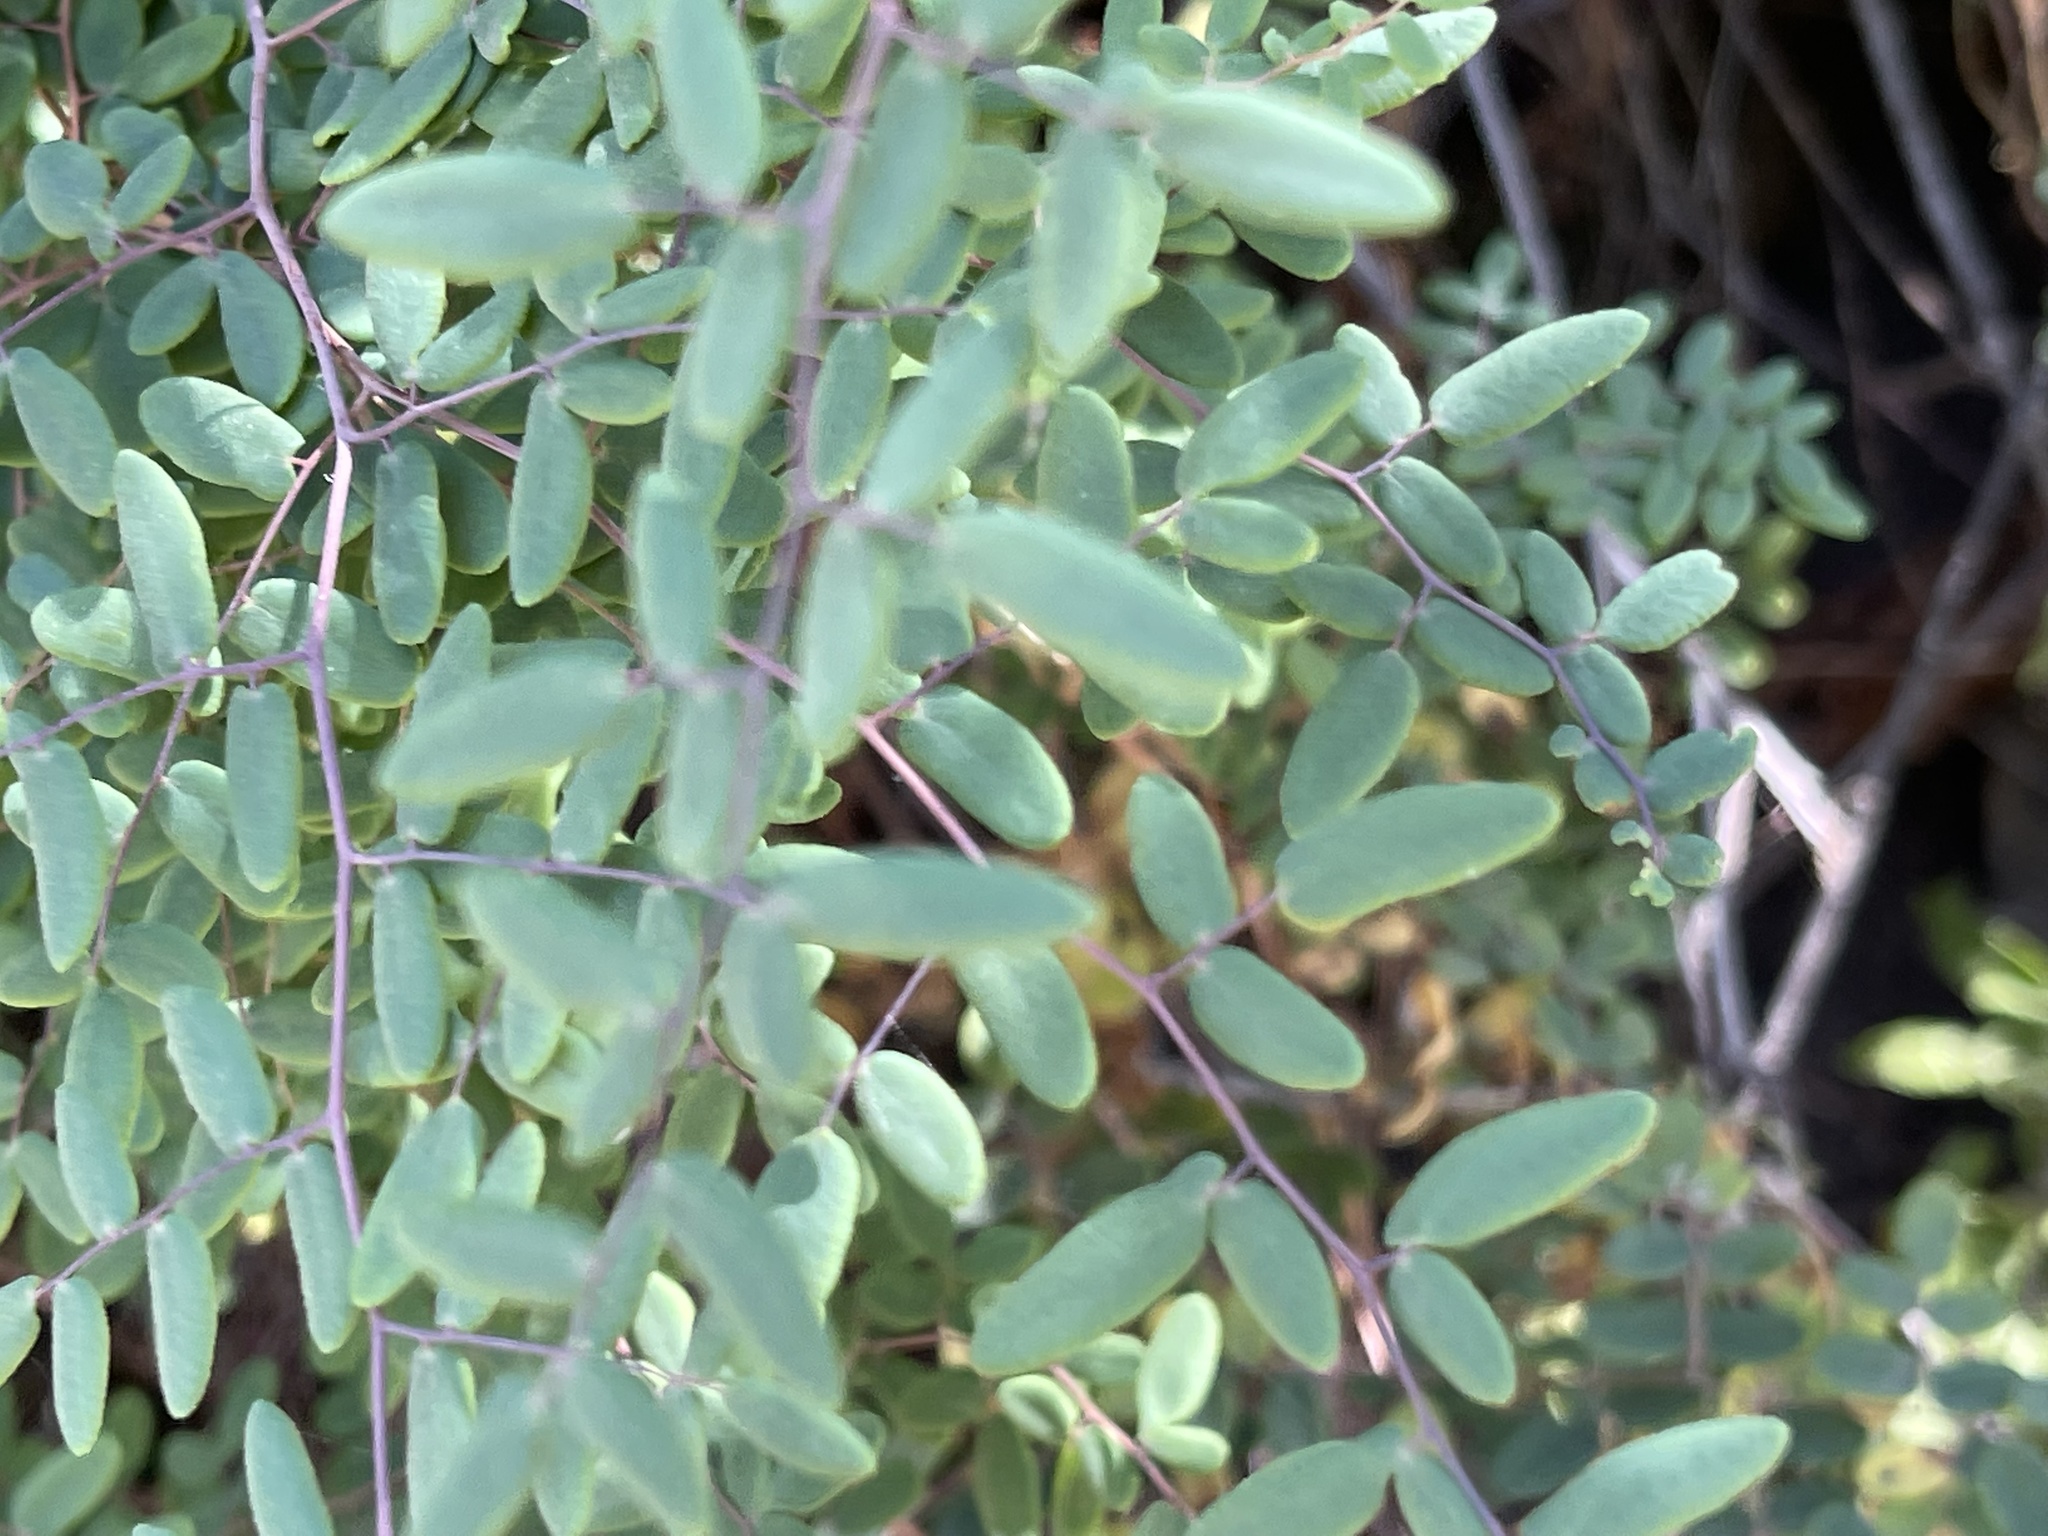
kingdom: Plantae
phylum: Tracheophyta
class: Polypodiopsida
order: Polypodiales
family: Pteridaceae
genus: Pellaea
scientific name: Pellaea andromedifolia
